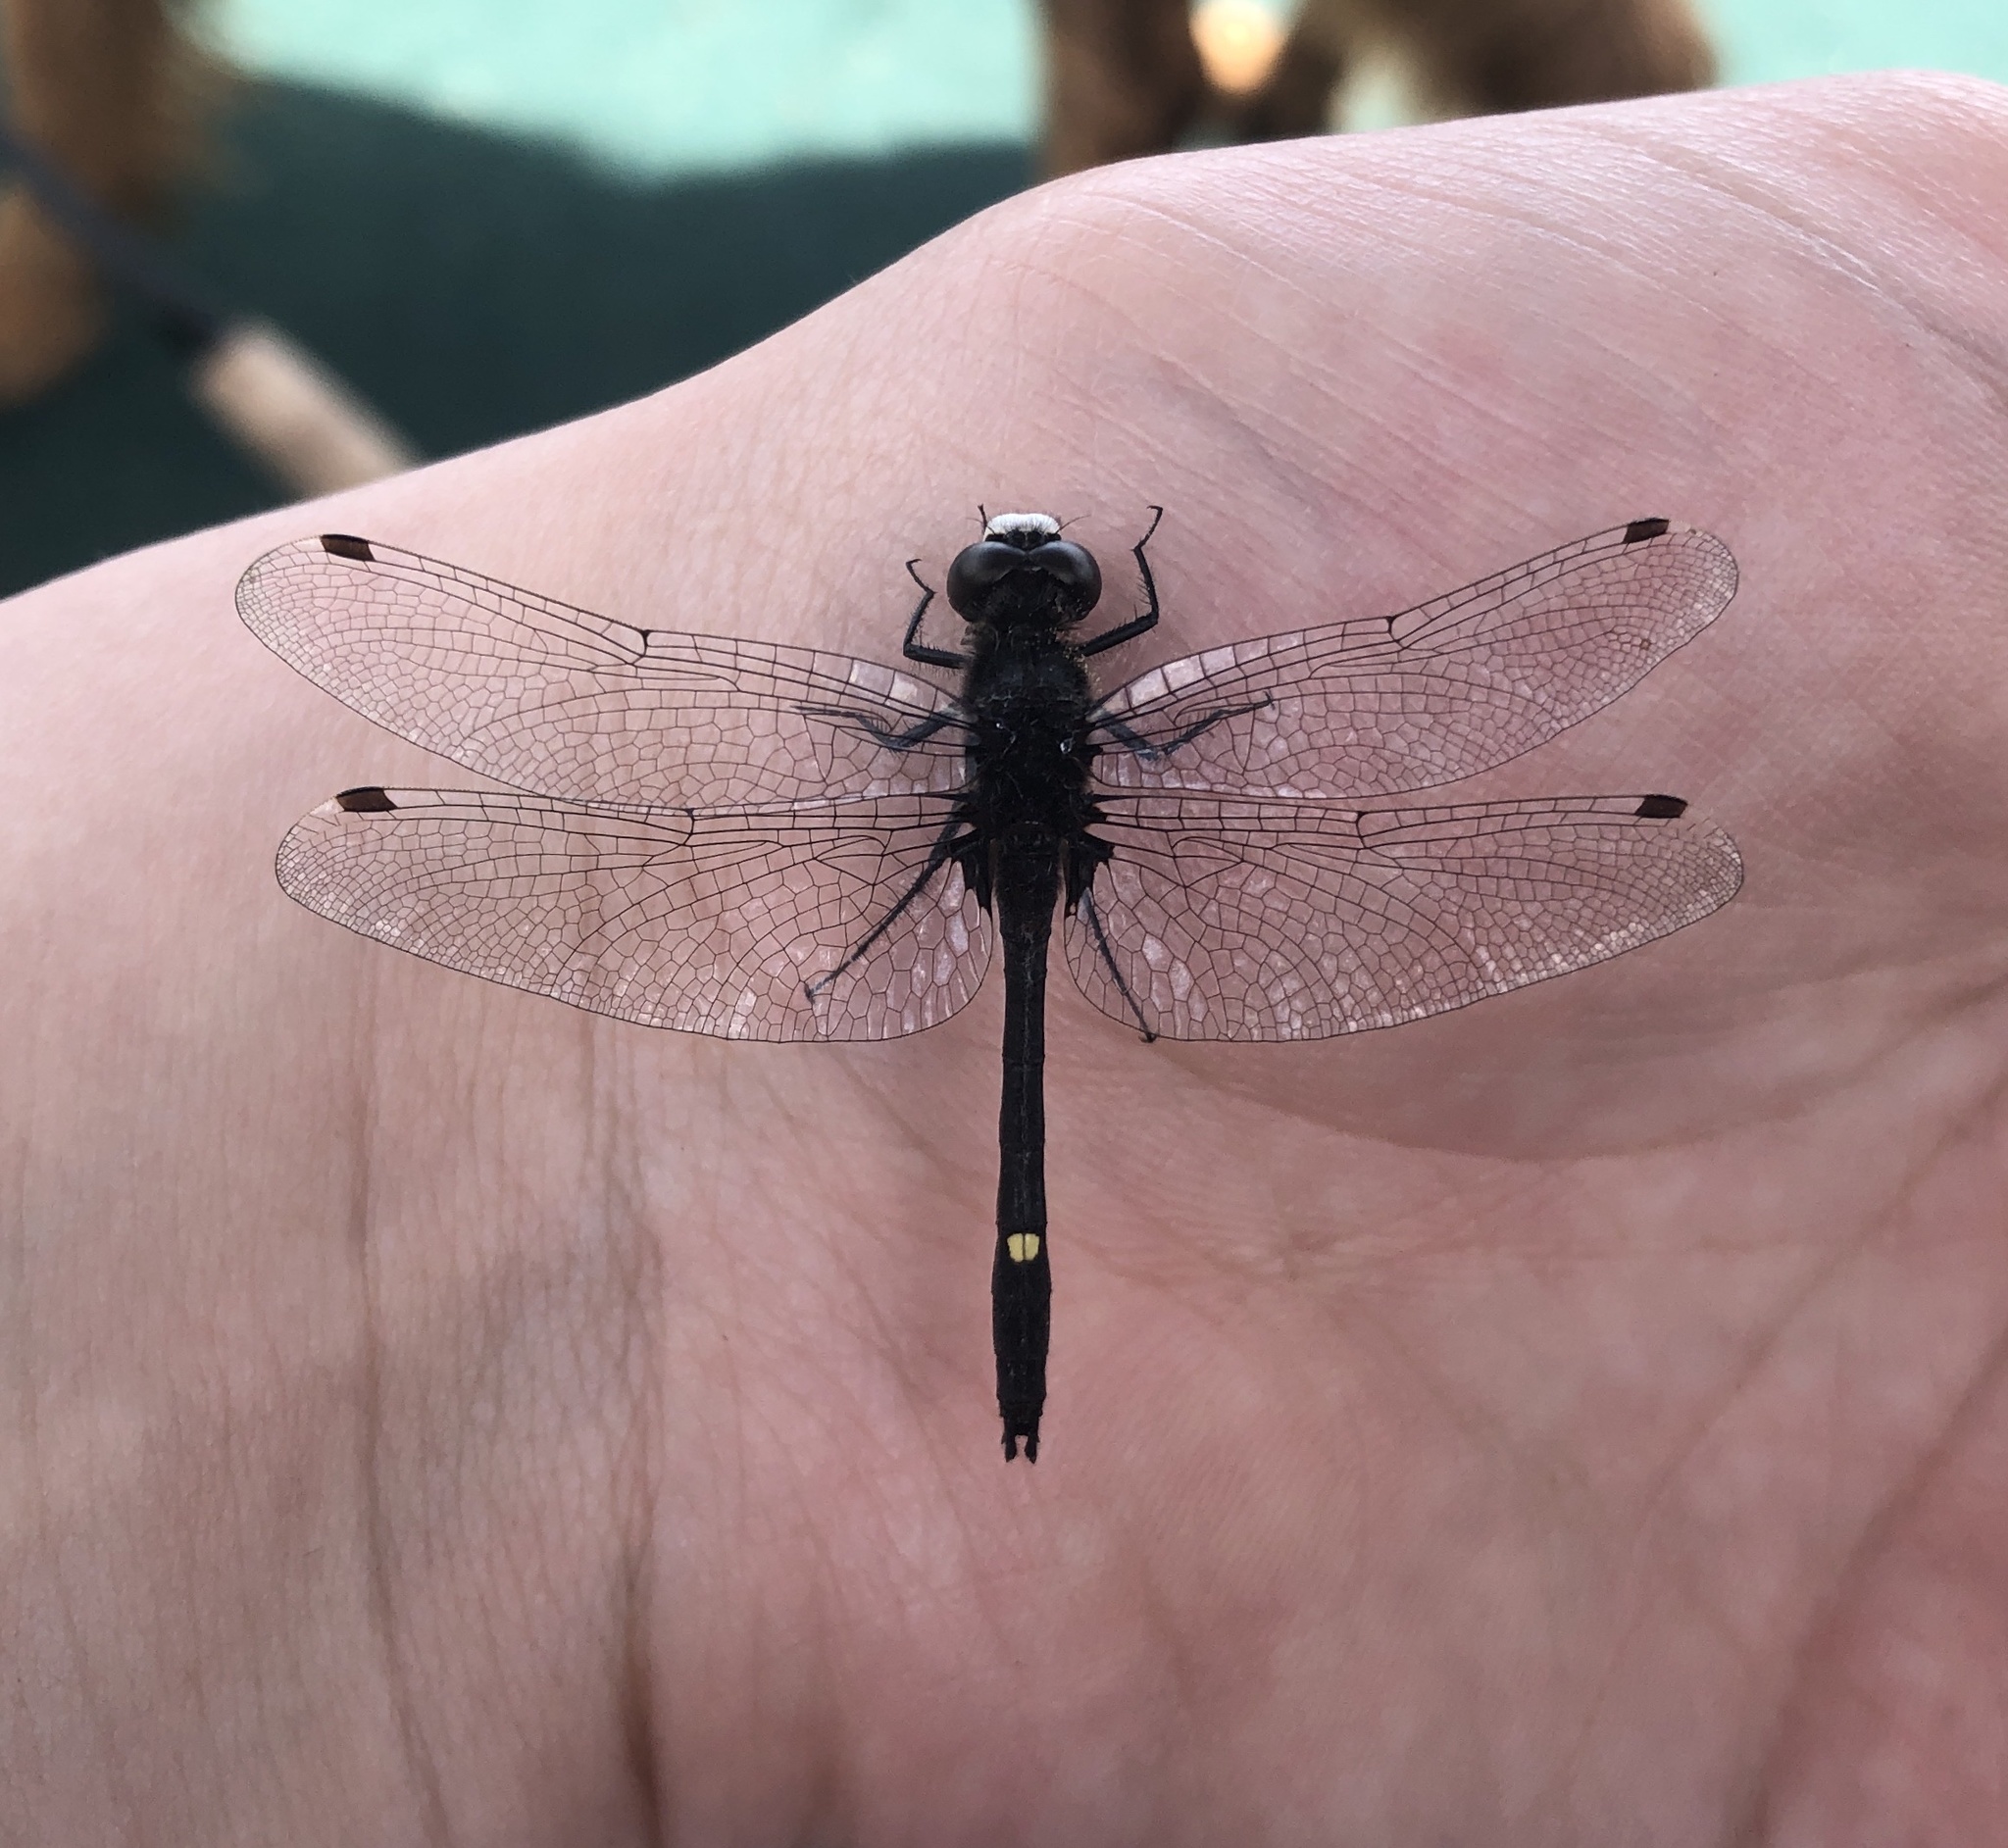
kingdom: Animalia
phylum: Arthropoda
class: Insecta
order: Odonata
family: Libellulidae
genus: Leucorrhinia
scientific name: Leucorrhinia intacta
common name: Dot-tailed whiteface
